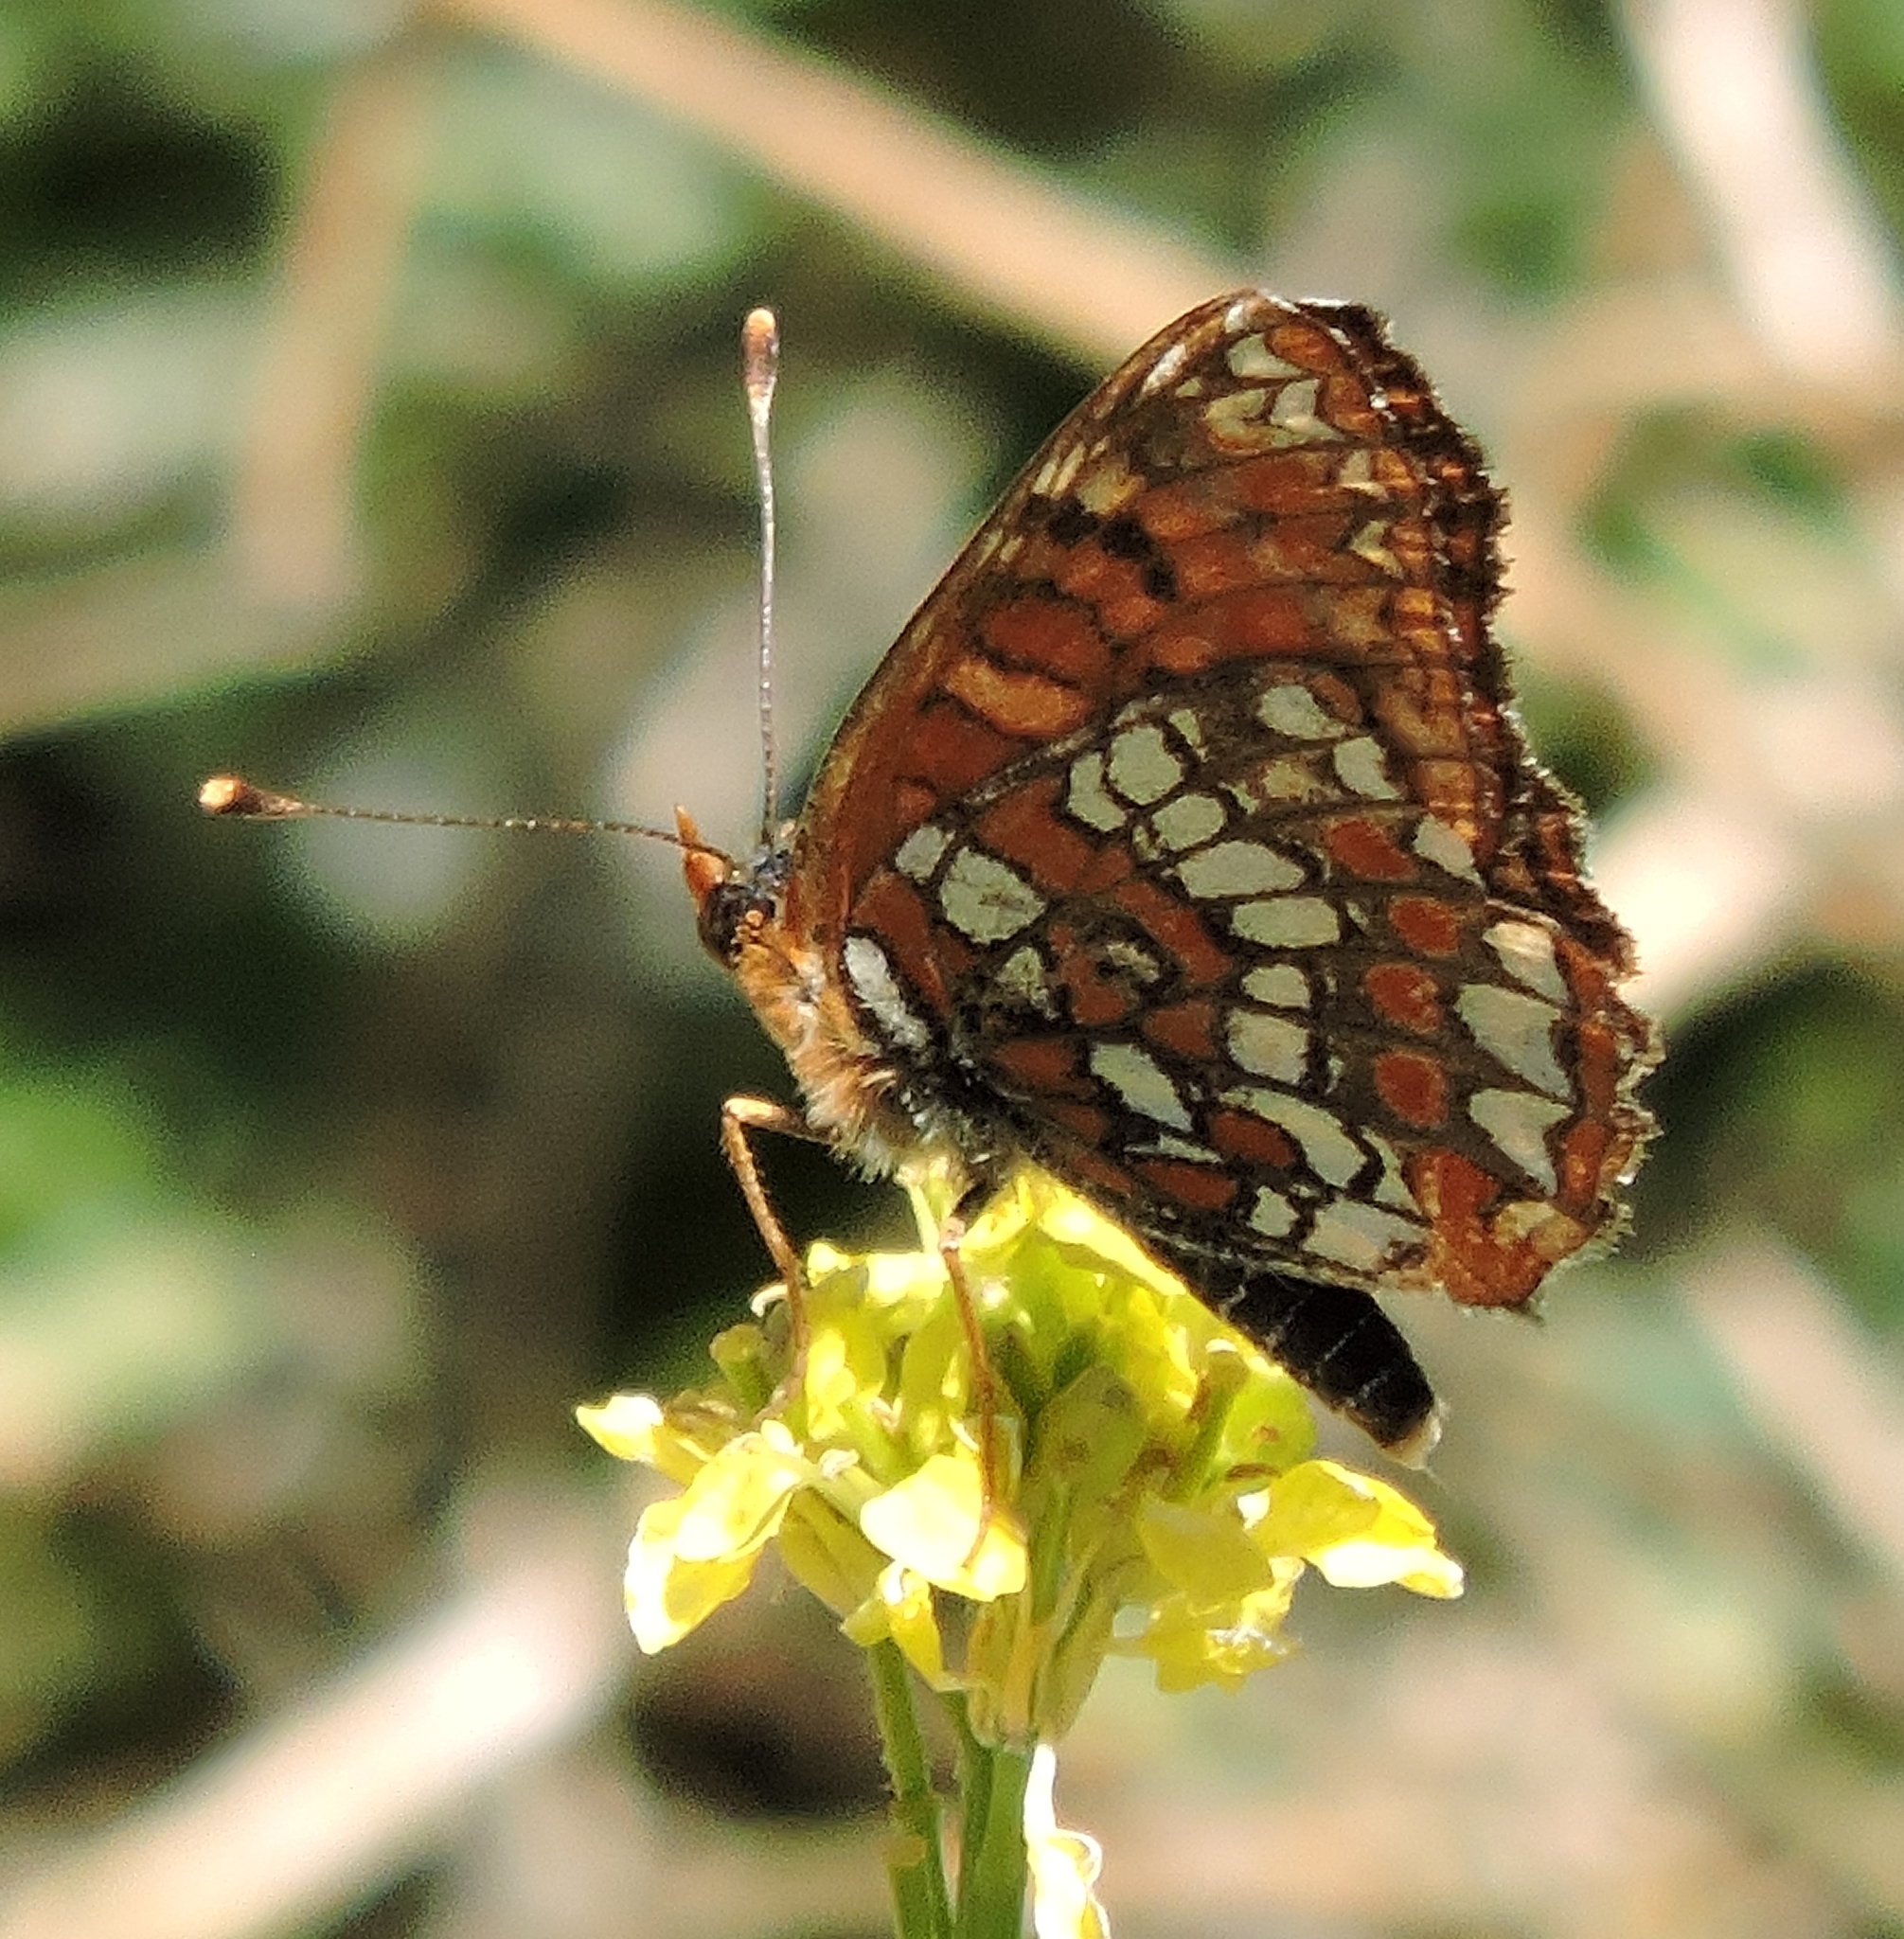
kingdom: Animalia
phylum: Arthropoda
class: Insecta
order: Lepidoptera
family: Nymphalidae
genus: Chlosyne
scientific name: Chlosyne palla
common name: Northern checkerspot
